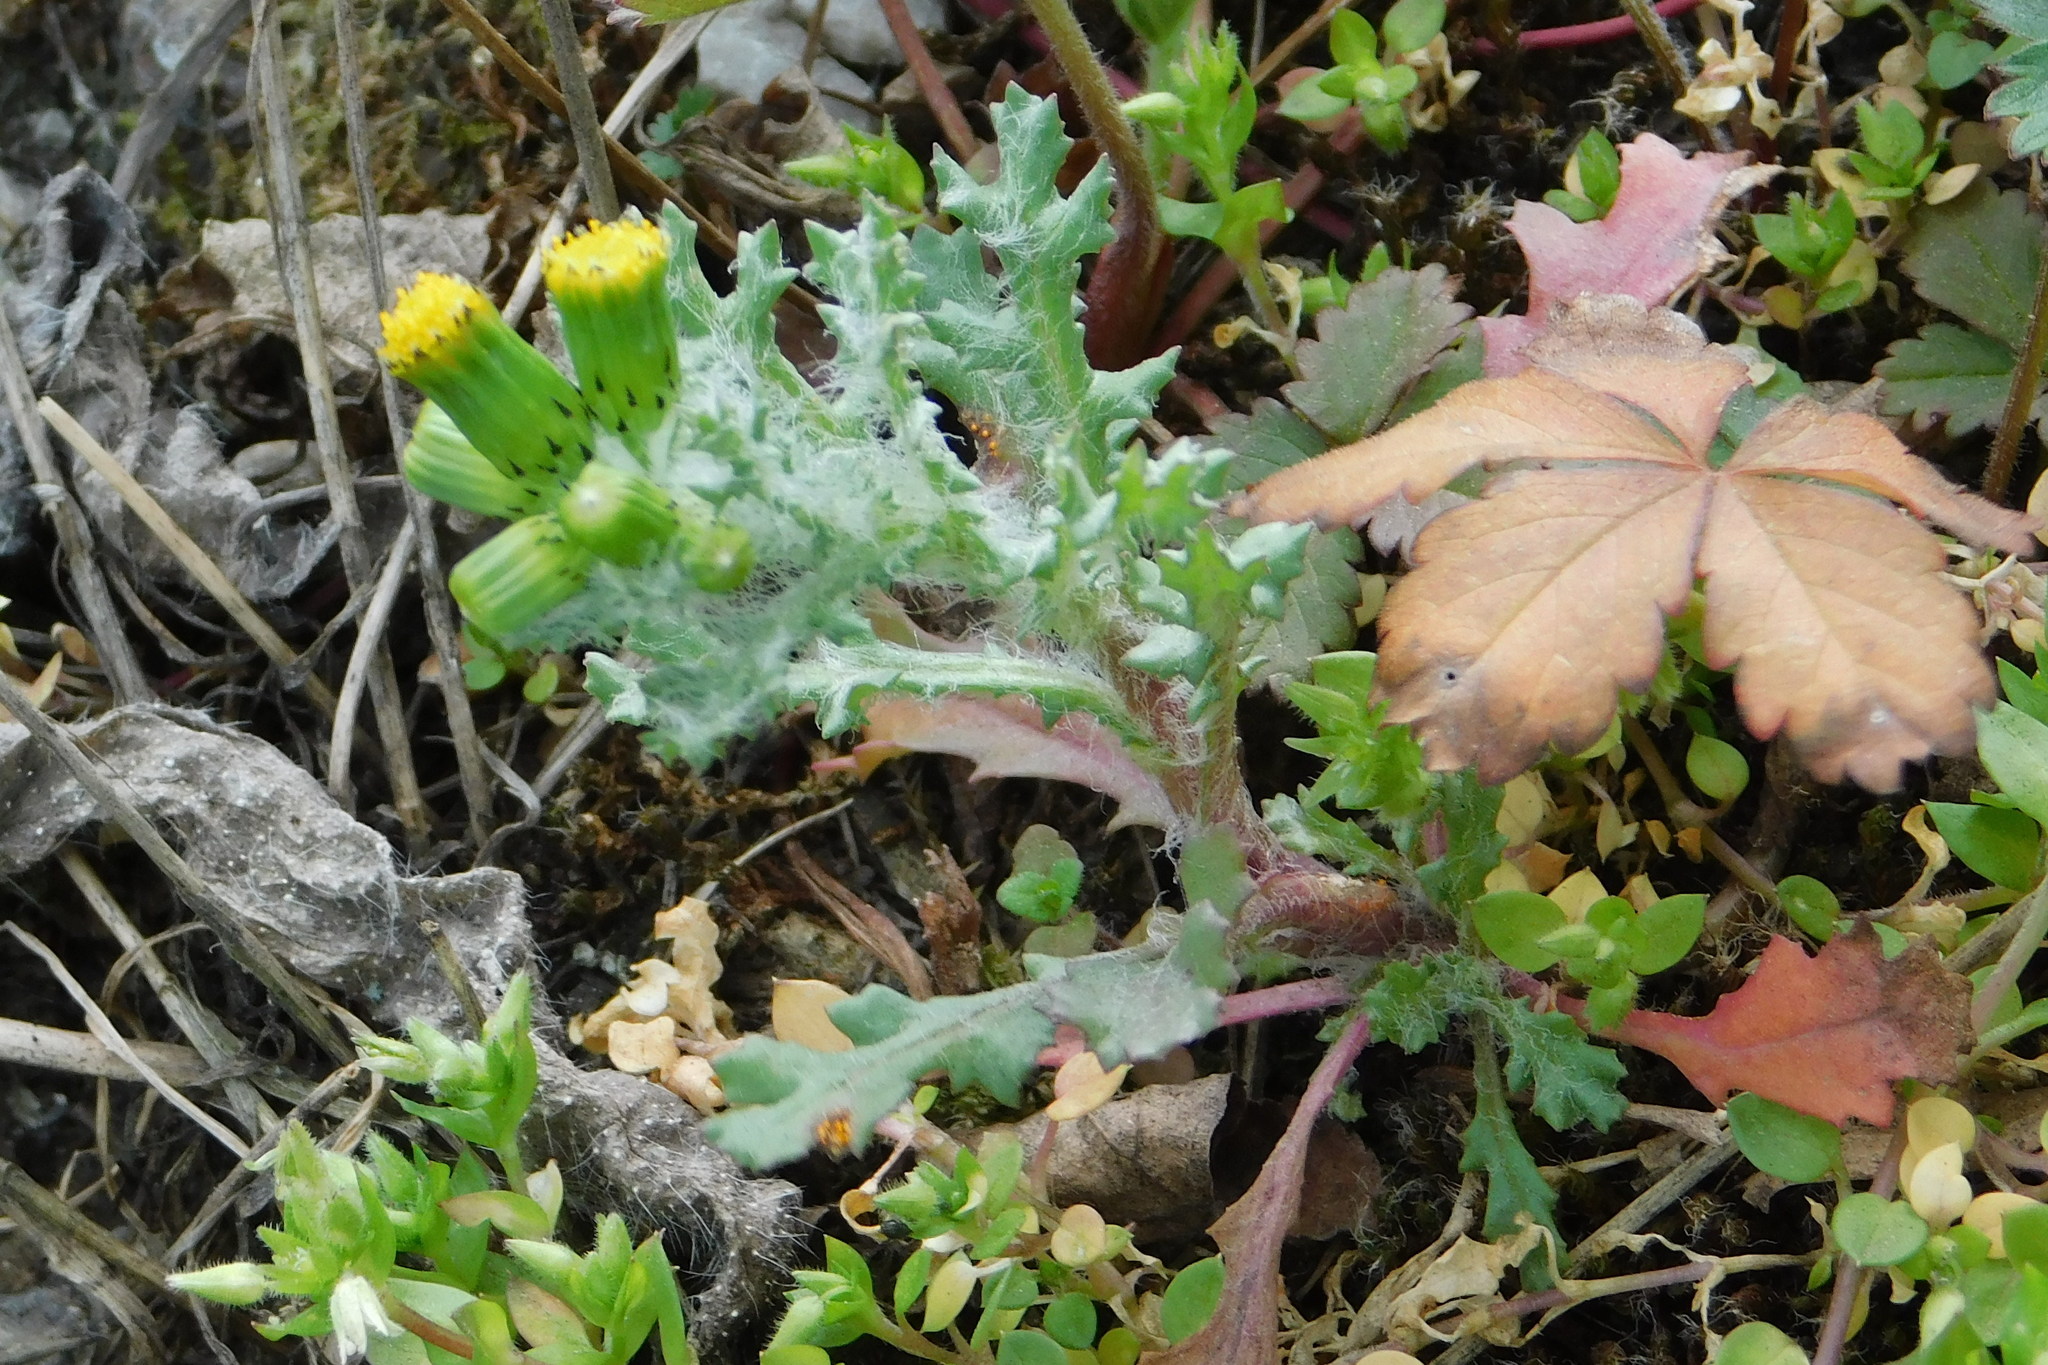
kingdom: Plantae
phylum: Tracheophyta
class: Magnoliopsida
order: Asterales
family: Asteraceae
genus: Senecio
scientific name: Senecio vulgaris
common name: Old-man-in-the-spring
